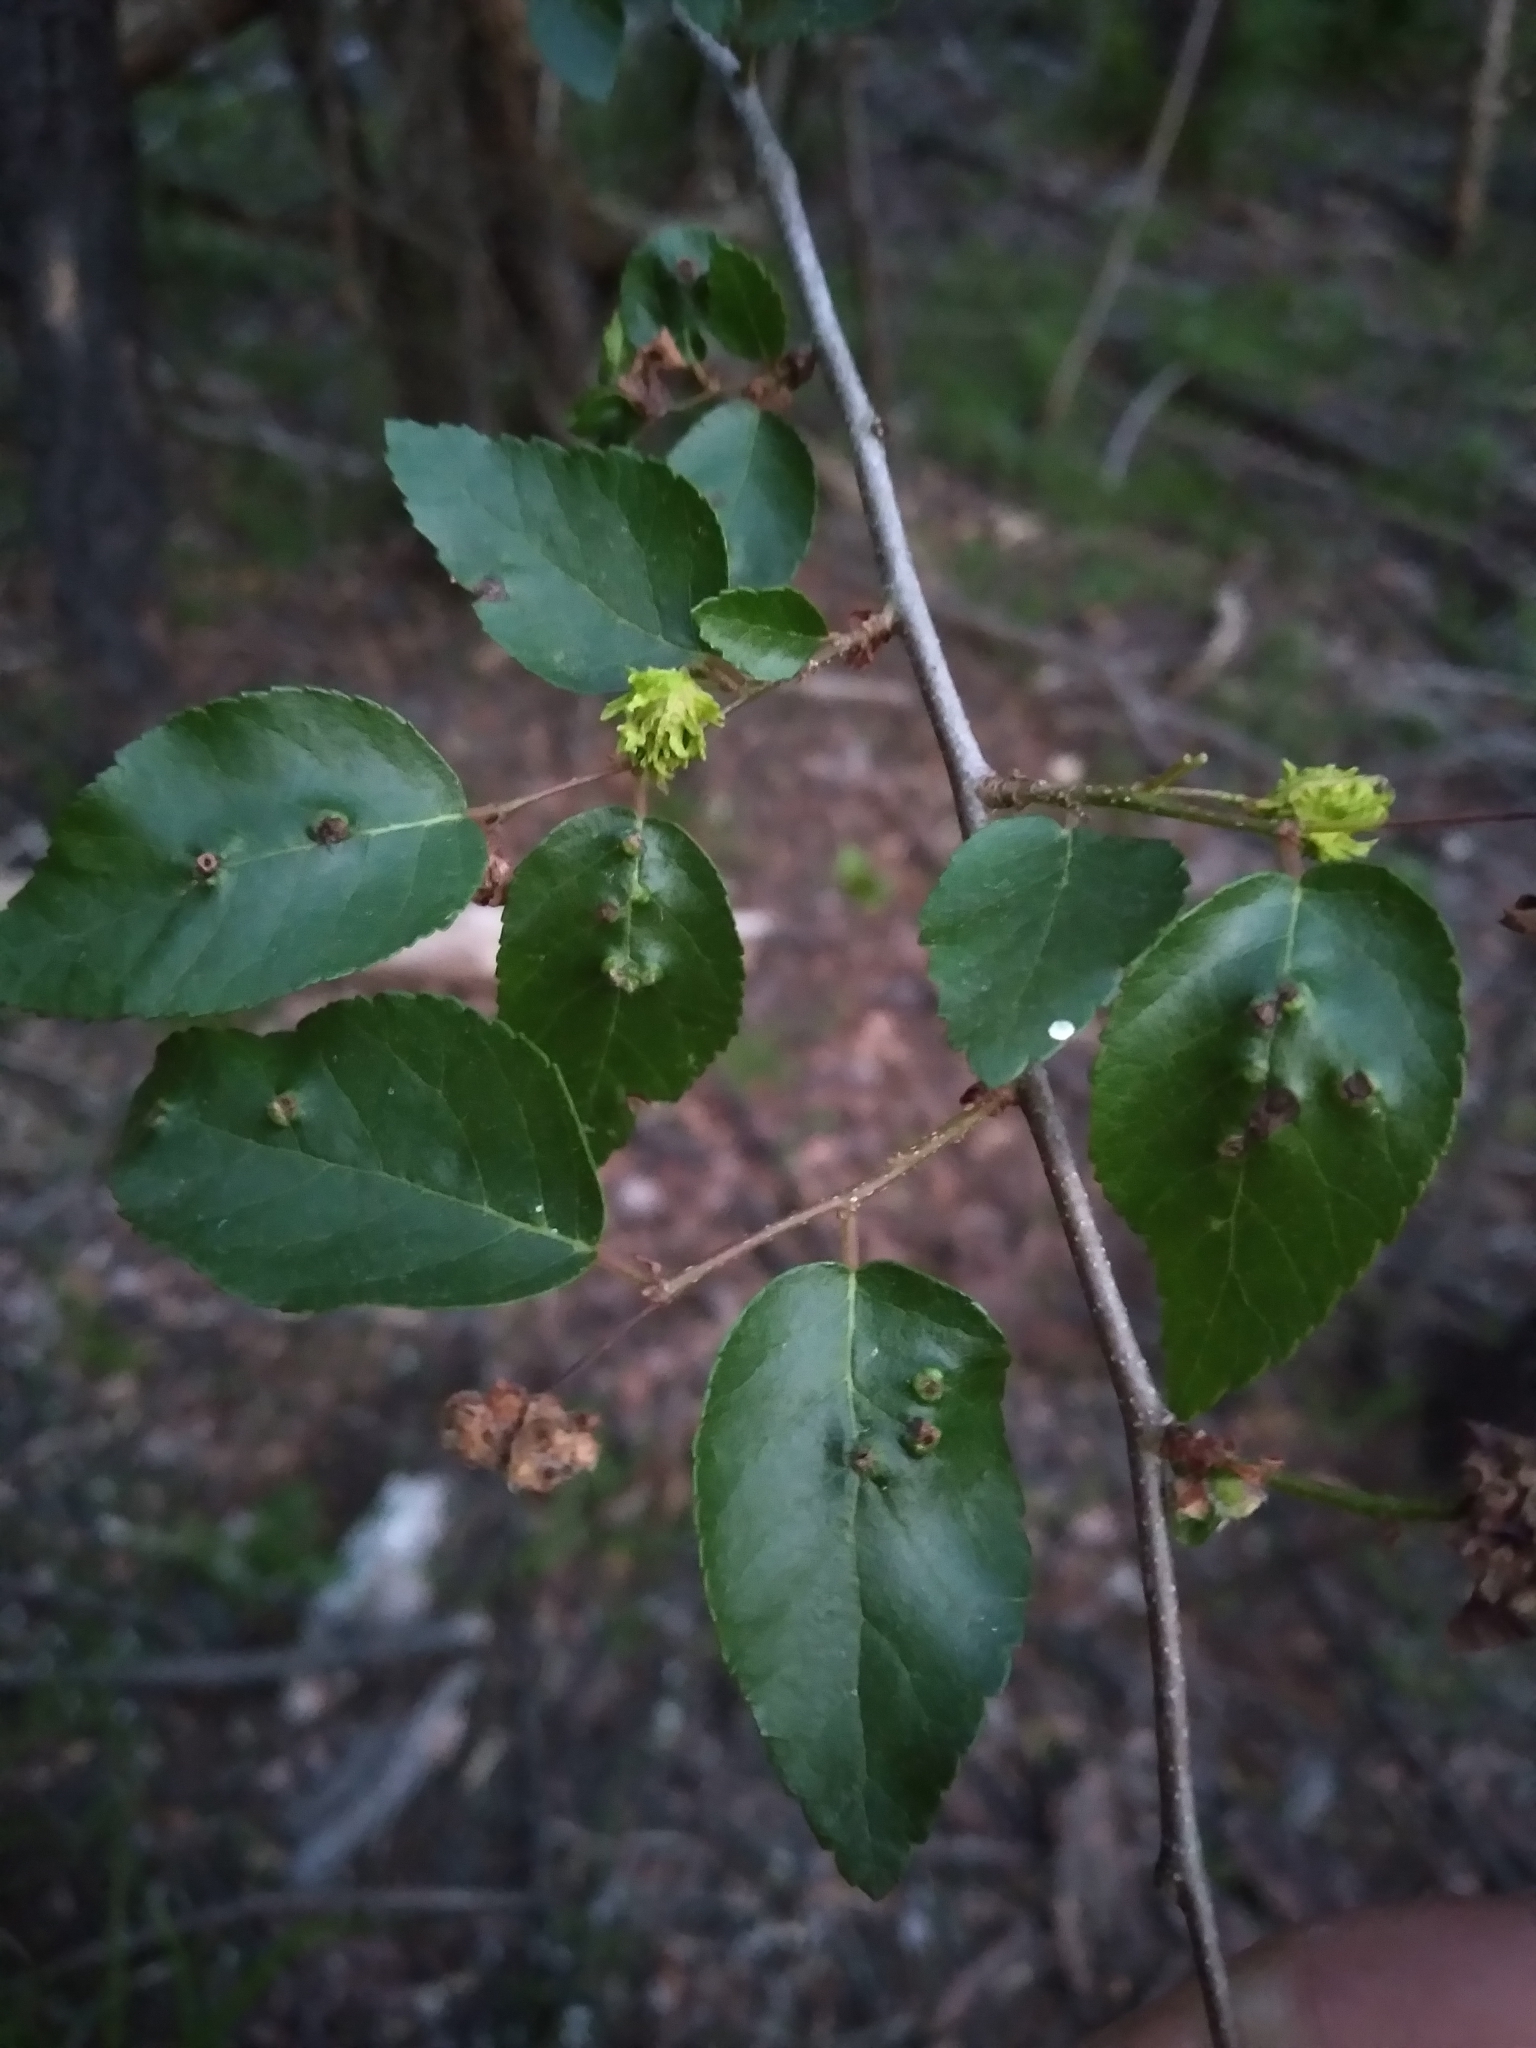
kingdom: Plantae
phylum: Tracheophyta
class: Magnoliopsida
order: Rosales
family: Ulmaceae
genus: Planera
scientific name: Planera aquatica
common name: Water-elm
